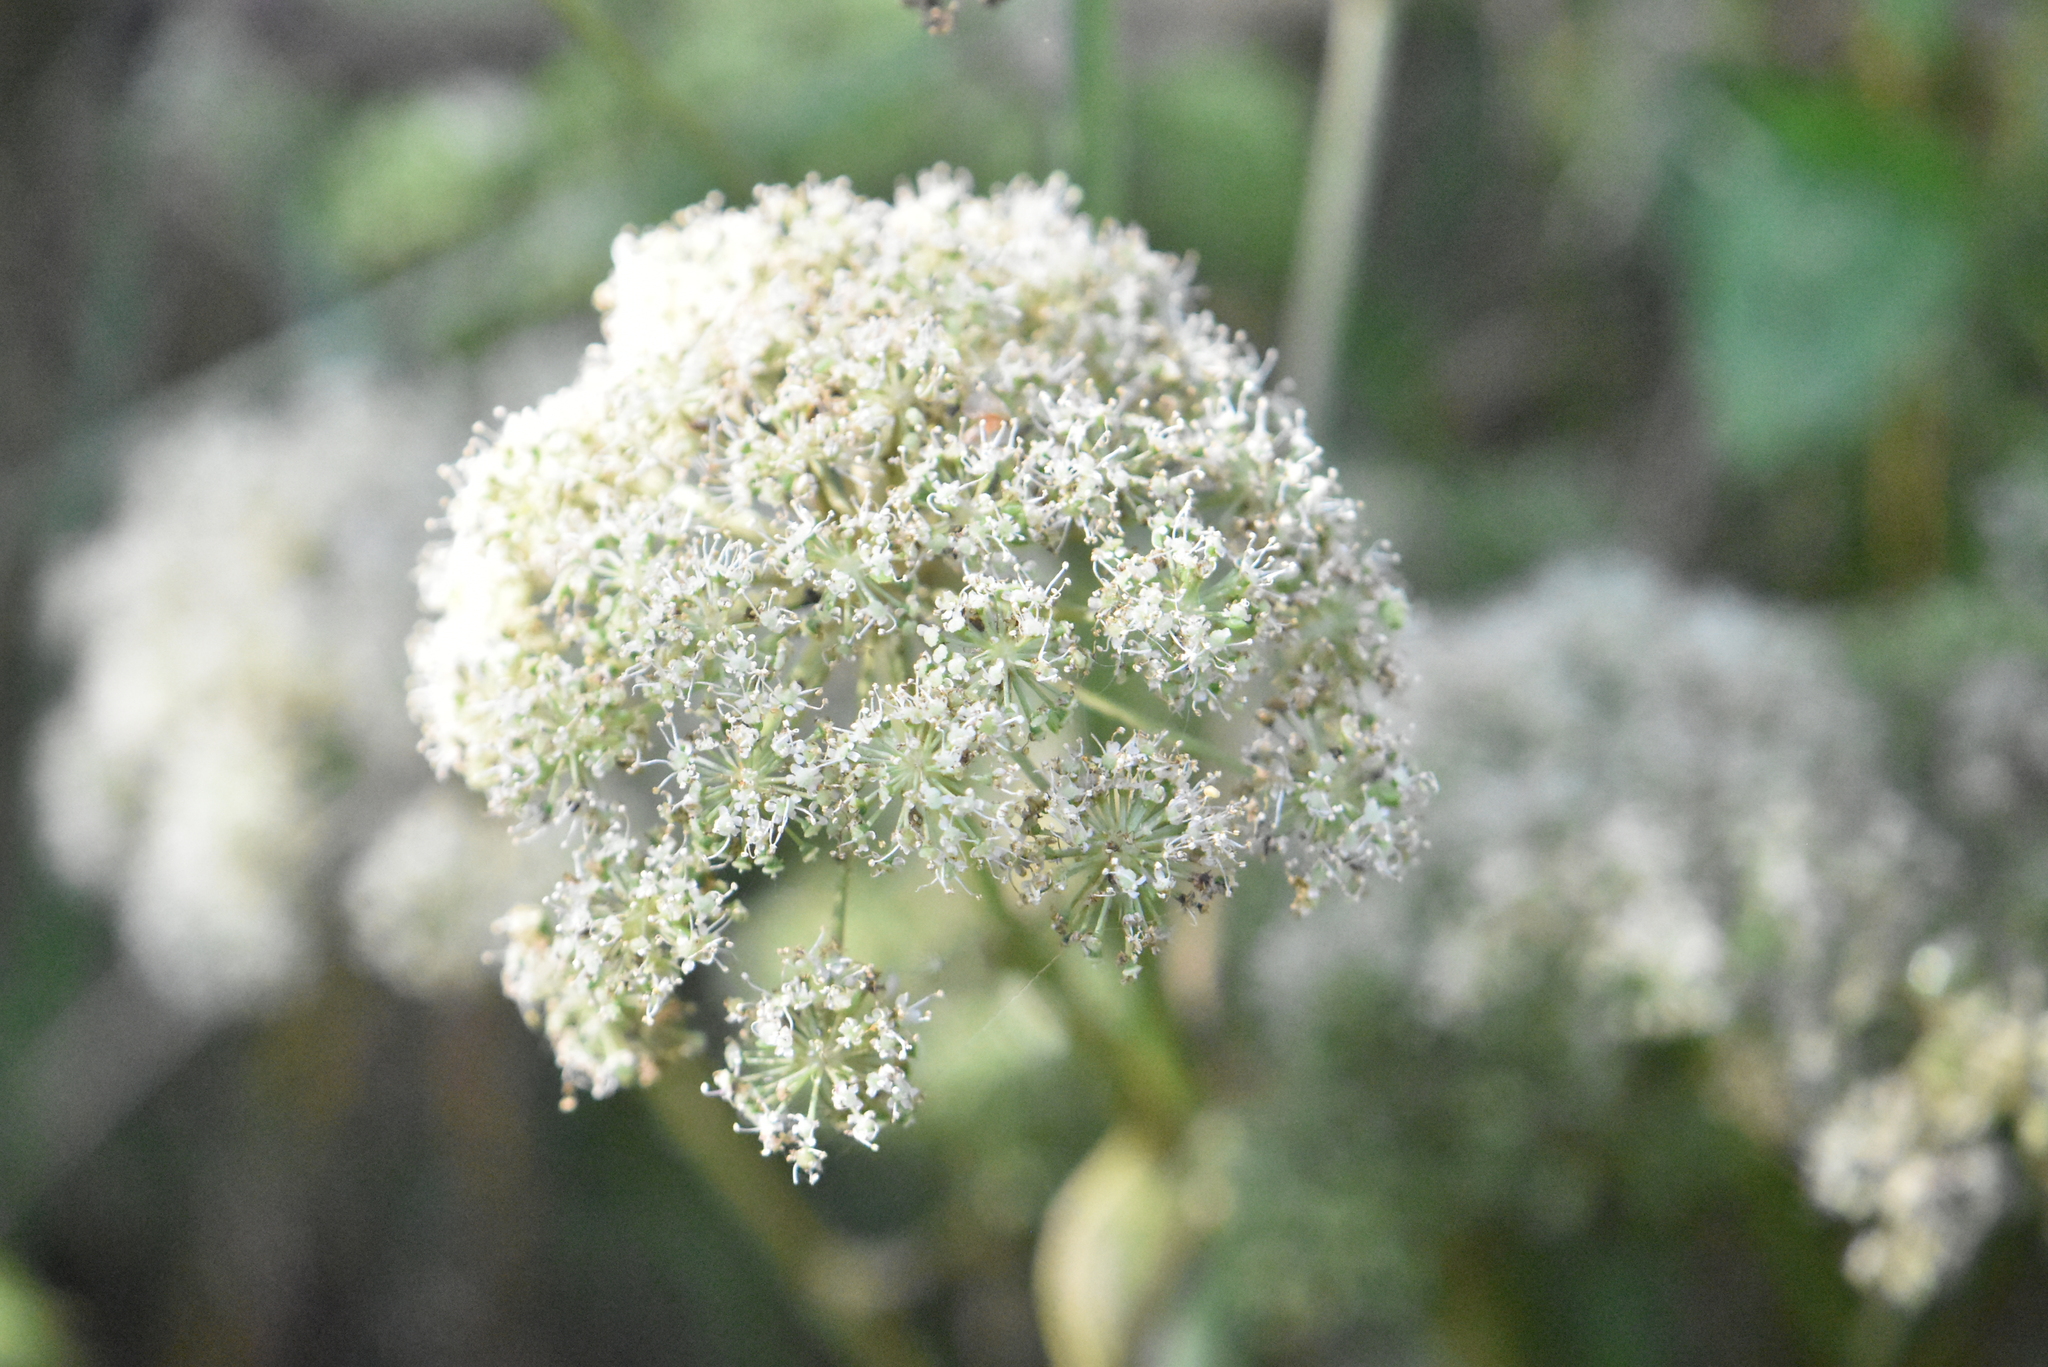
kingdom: Plantae
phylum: Tracheophyta
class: Magnoliopsida
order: Apiales
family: Apiaceae
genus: Angelica
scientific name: Angelica sylvestris
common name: Wild angelica
